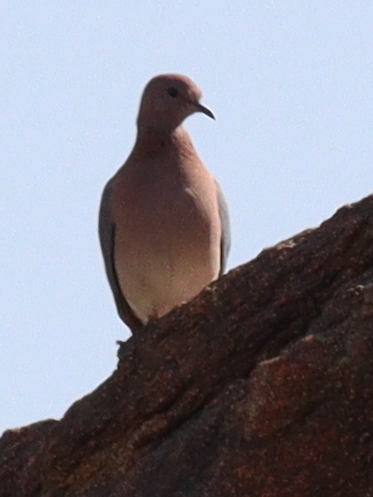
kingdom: Animalia
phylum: Chordata
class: Aves
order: Columbiformes
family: Columbidae
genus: Spilopelia
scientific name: Spilopelia senegalensis
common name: Laughing dove
